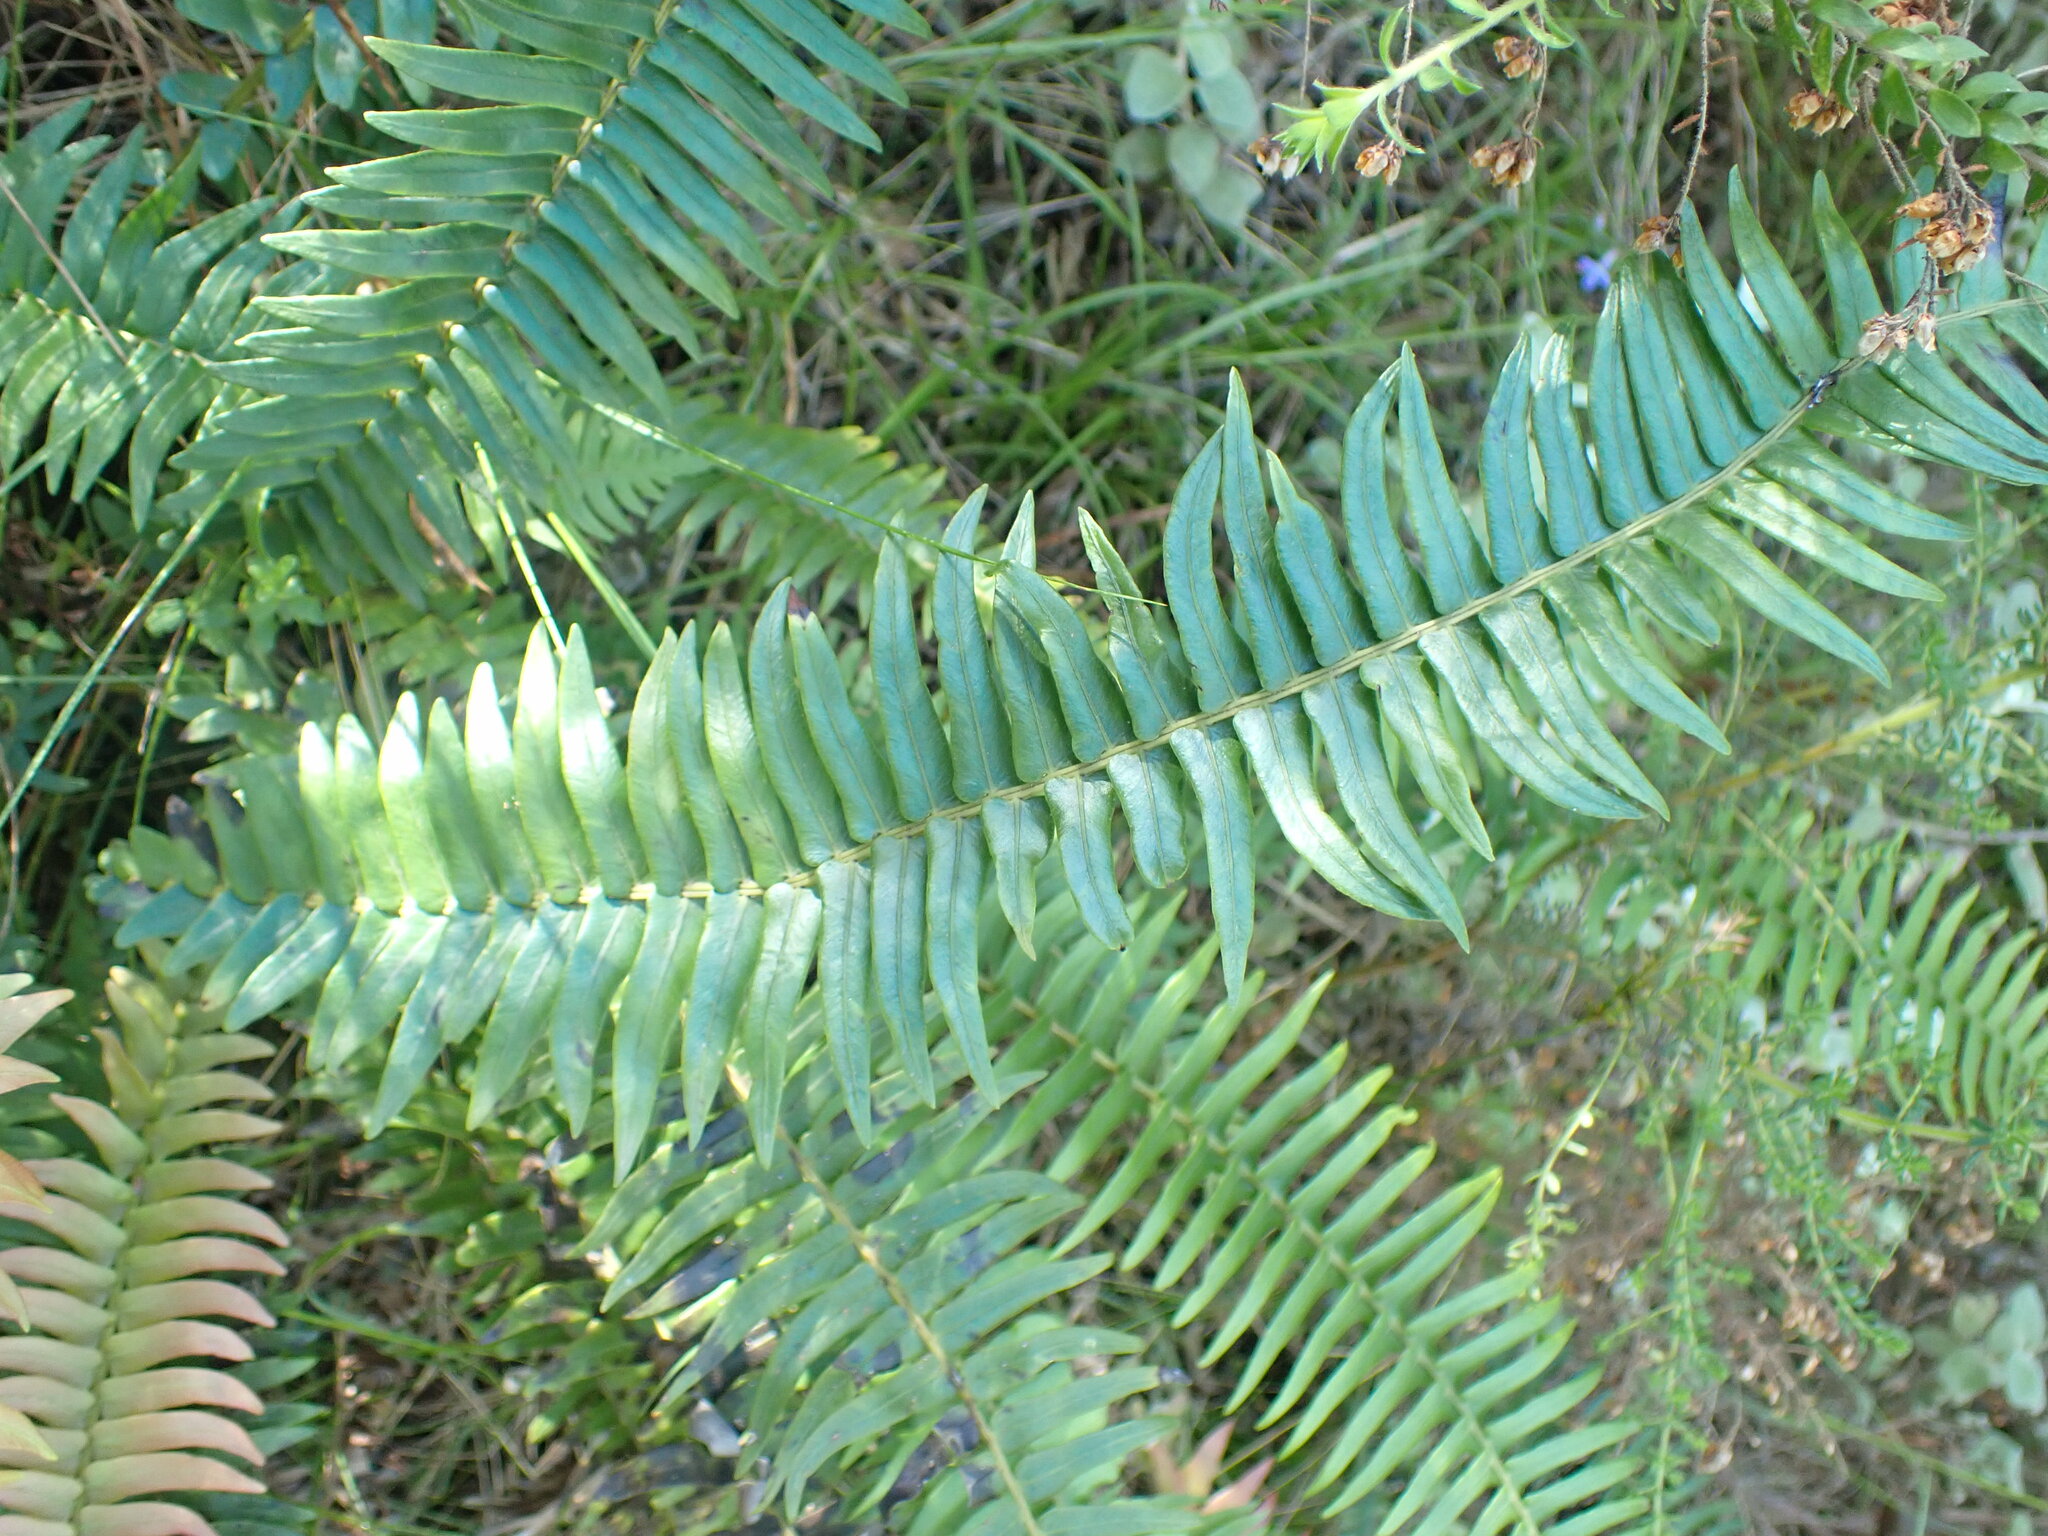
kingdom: Plantae
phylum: Tracheophyta
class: Polypodiopsida
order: Polypodiales
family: Blechnaceae
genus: Blechnum
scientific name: Blechnum punctulatum
